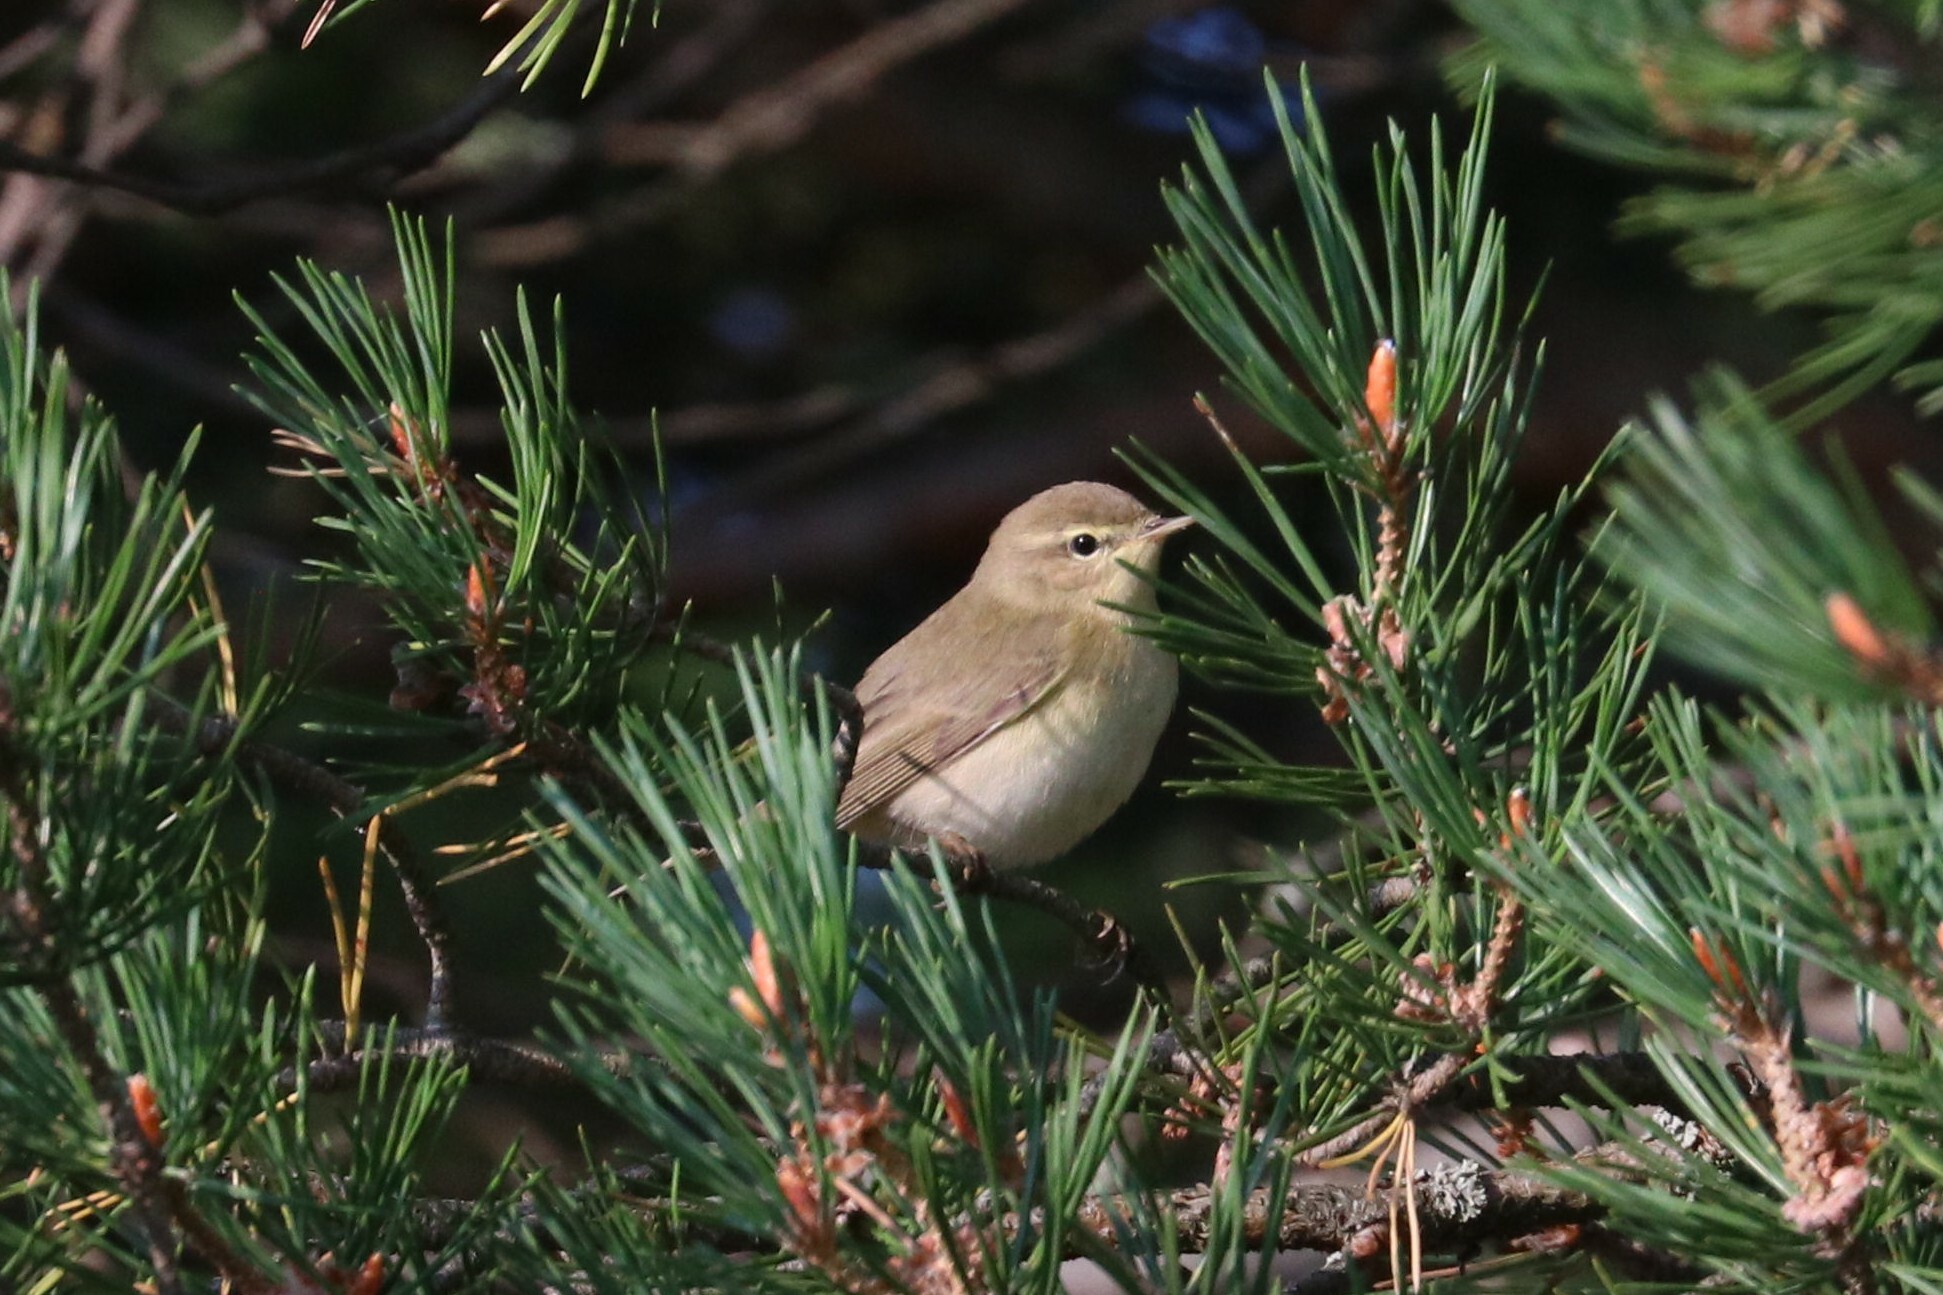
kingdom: Animalia
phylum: Chordata
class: Aves
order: Passeriformes
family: Phylloscopidae
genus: Phylloscopus
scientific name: Phylloscopus collybita
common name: Common chiffchaff
